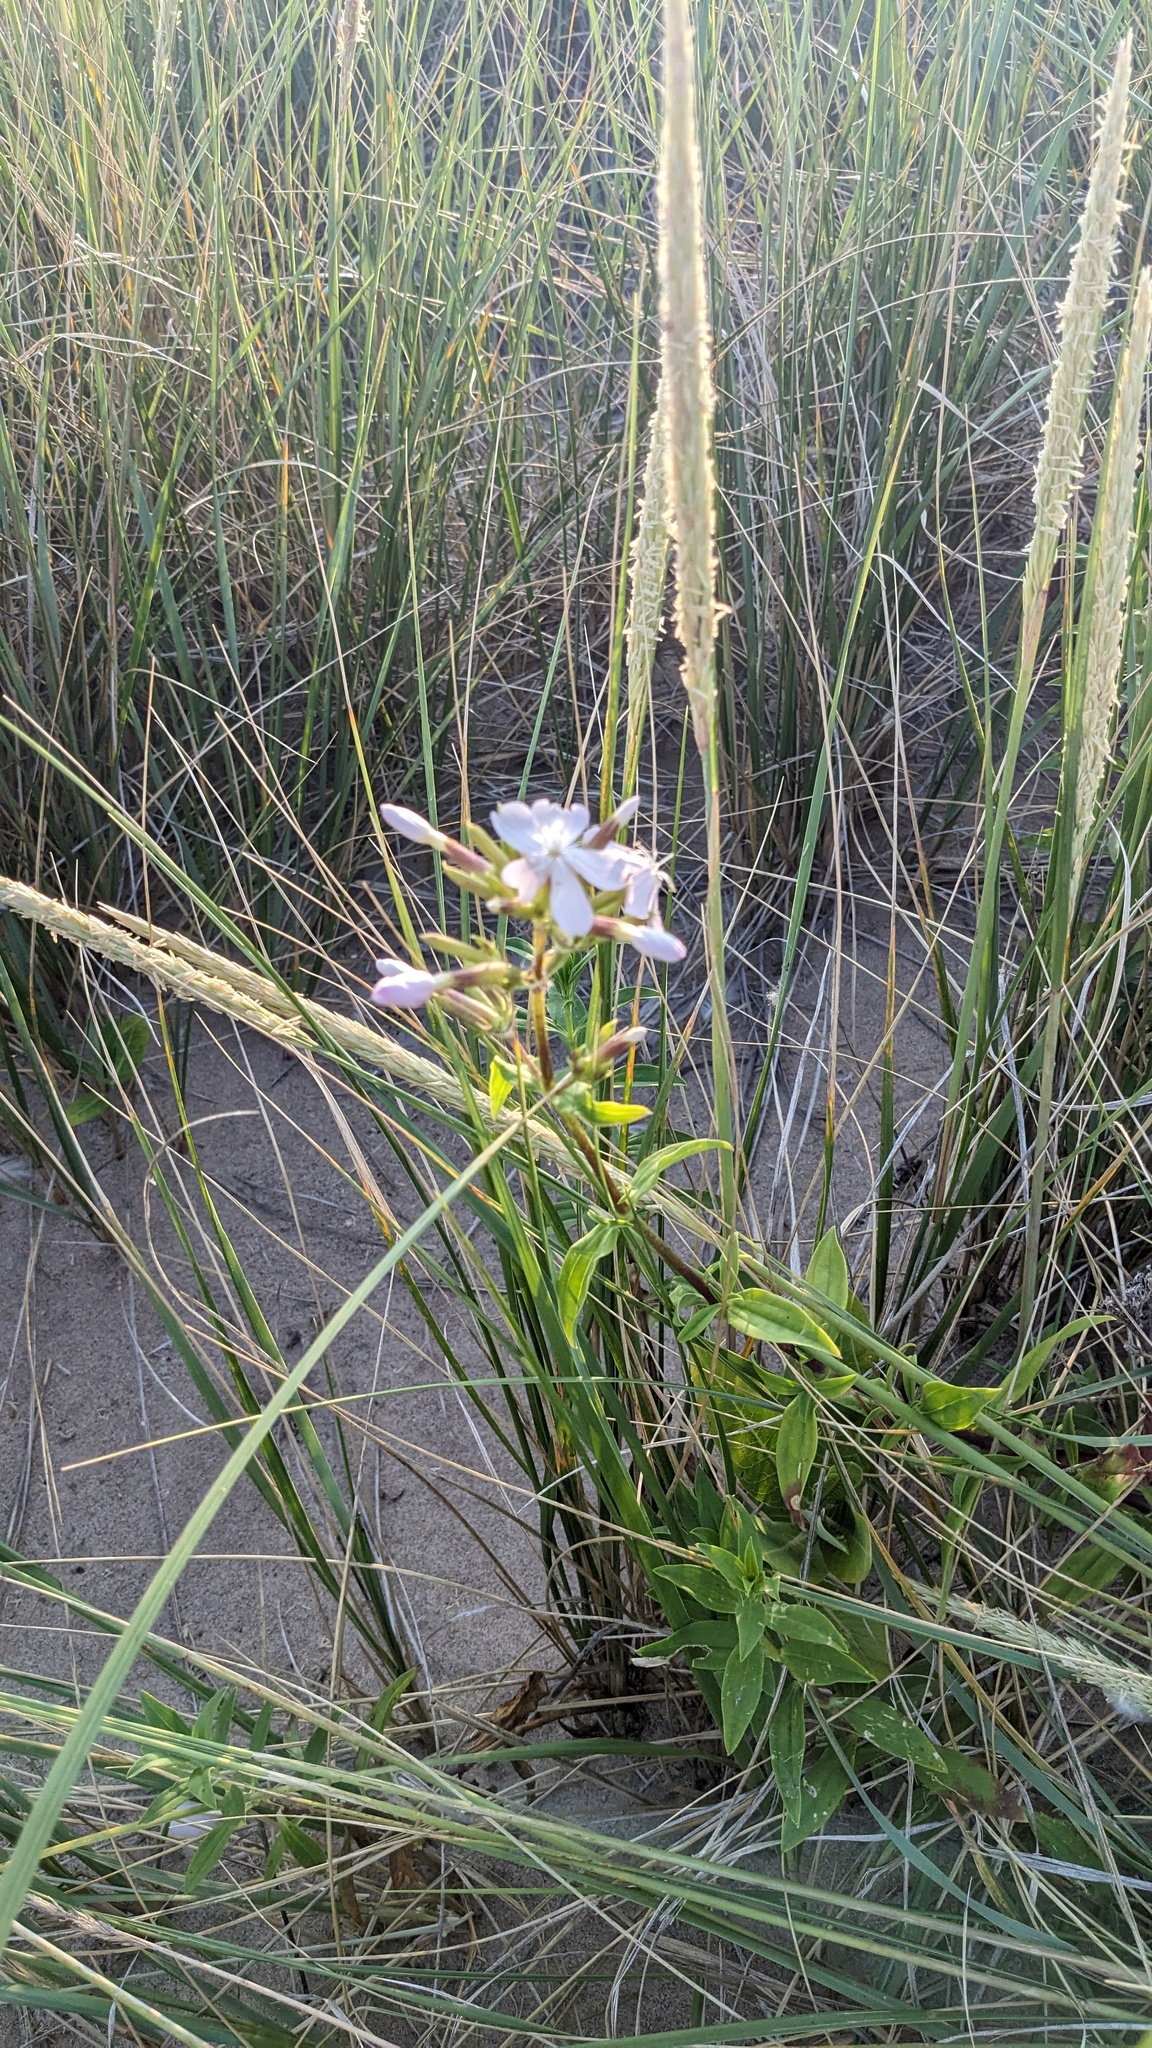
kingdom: Plantae
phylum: Tracheophyta
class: Magnoliopsida
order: Caryophyllales
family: Caryophyllaceae
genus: Saponaria
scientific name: Saponaria officinalis
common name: Soapwort
